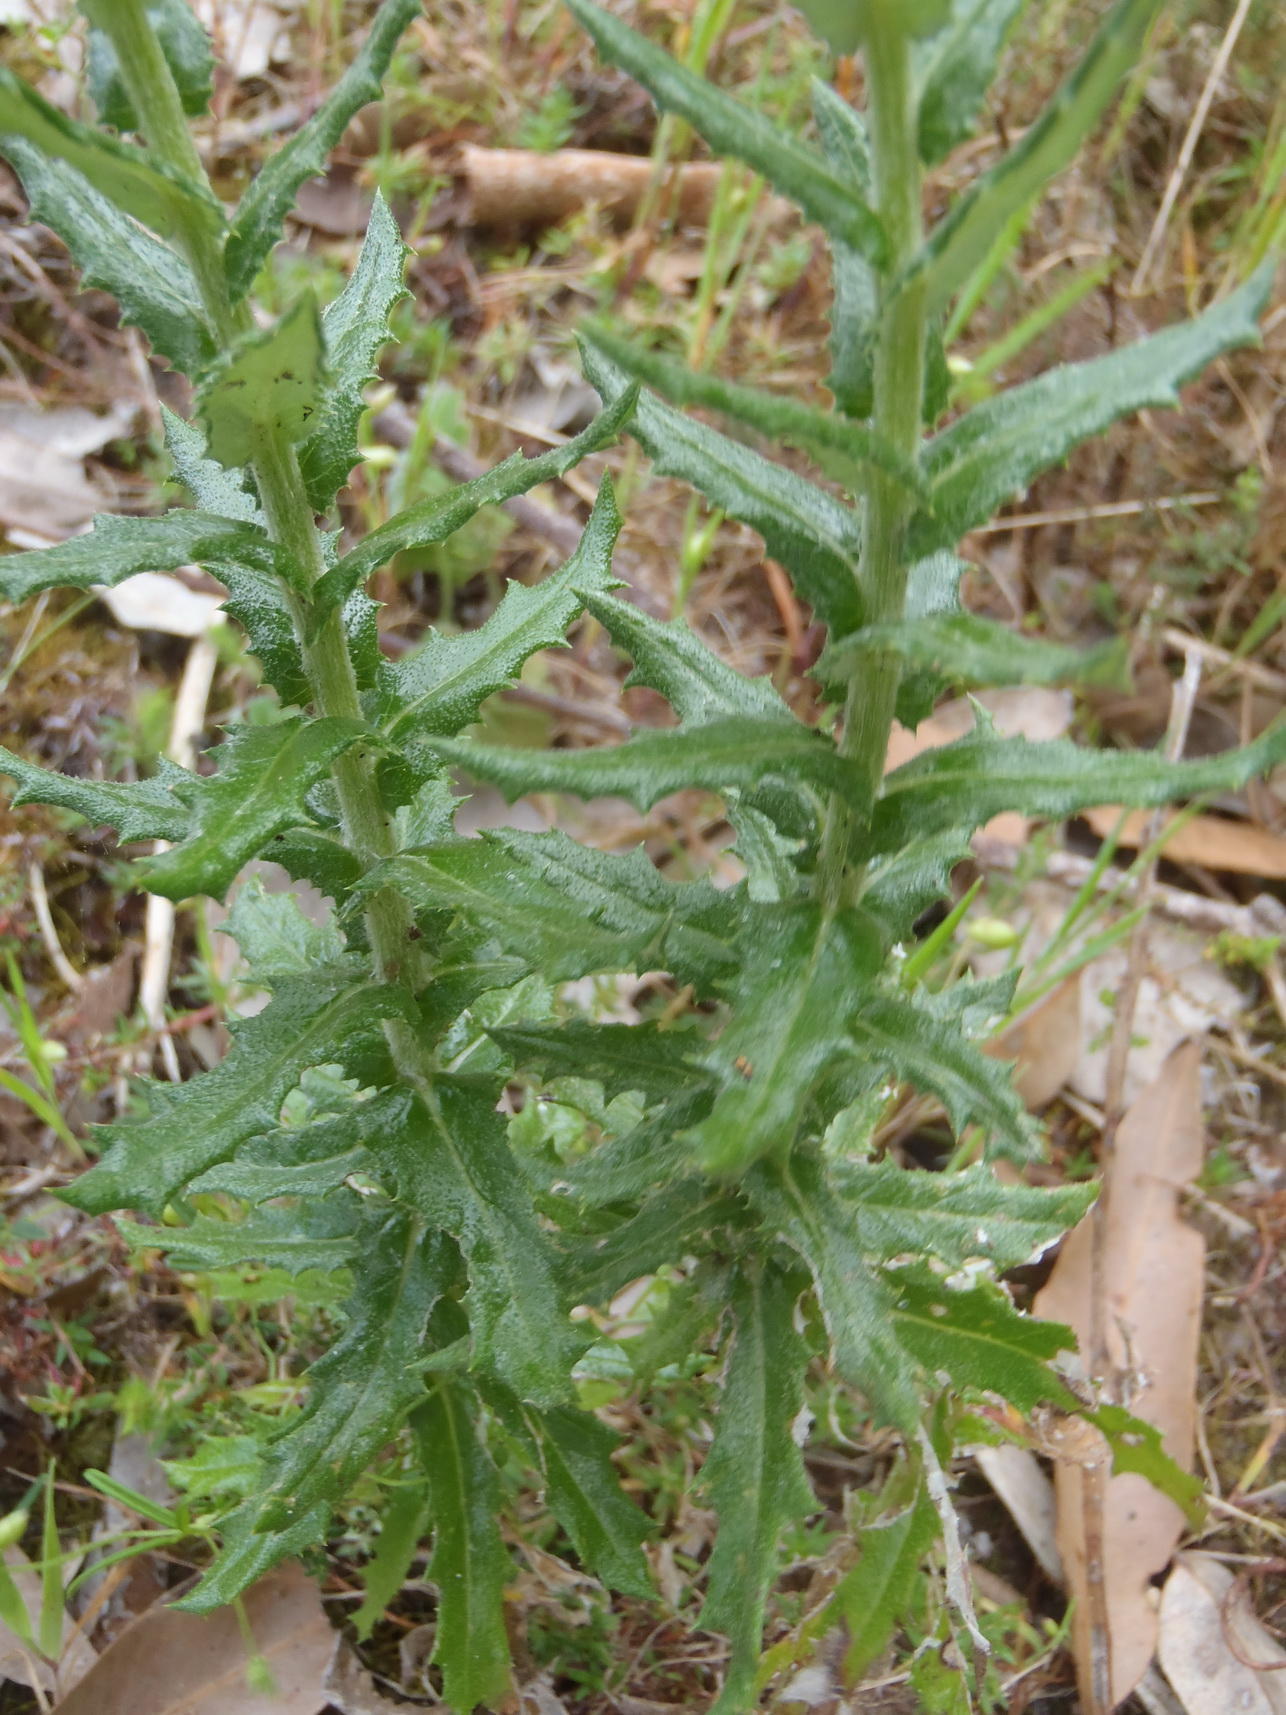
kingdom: Plantae
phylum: Tracheophyta
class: Magnoliopsida
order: Asterales
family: Asteraceae
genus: Senecio
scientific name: Senecio ilicifolius
